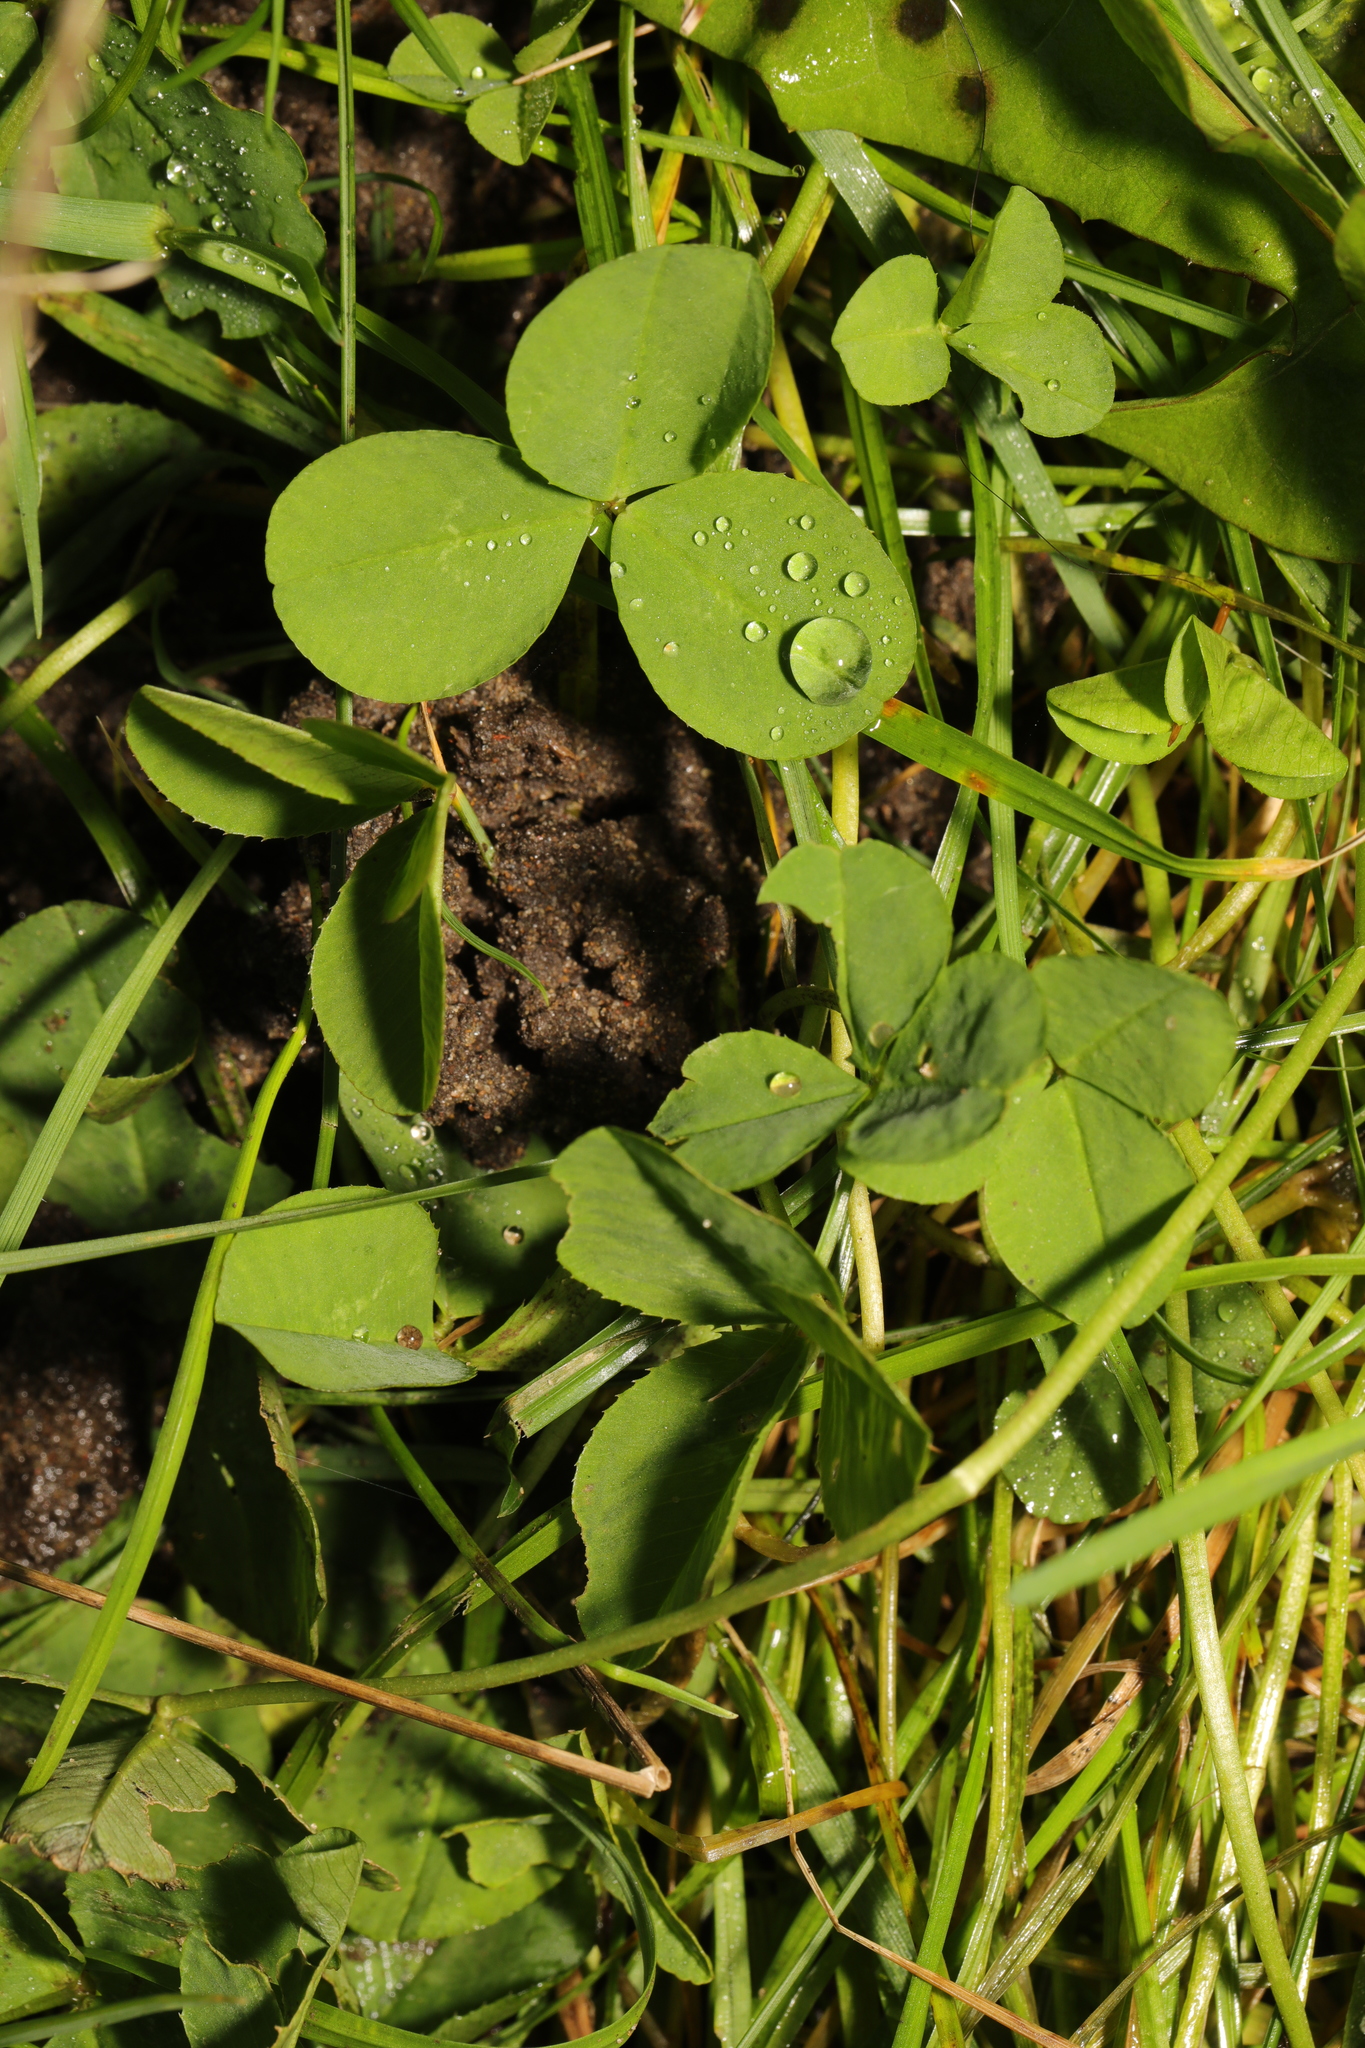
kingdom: Plantae
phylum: Tracheophyta
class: Magnoliopsida
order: Fabales
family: Fabaceae
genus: Trifolium
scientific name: Trifolium repens
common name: White clover
